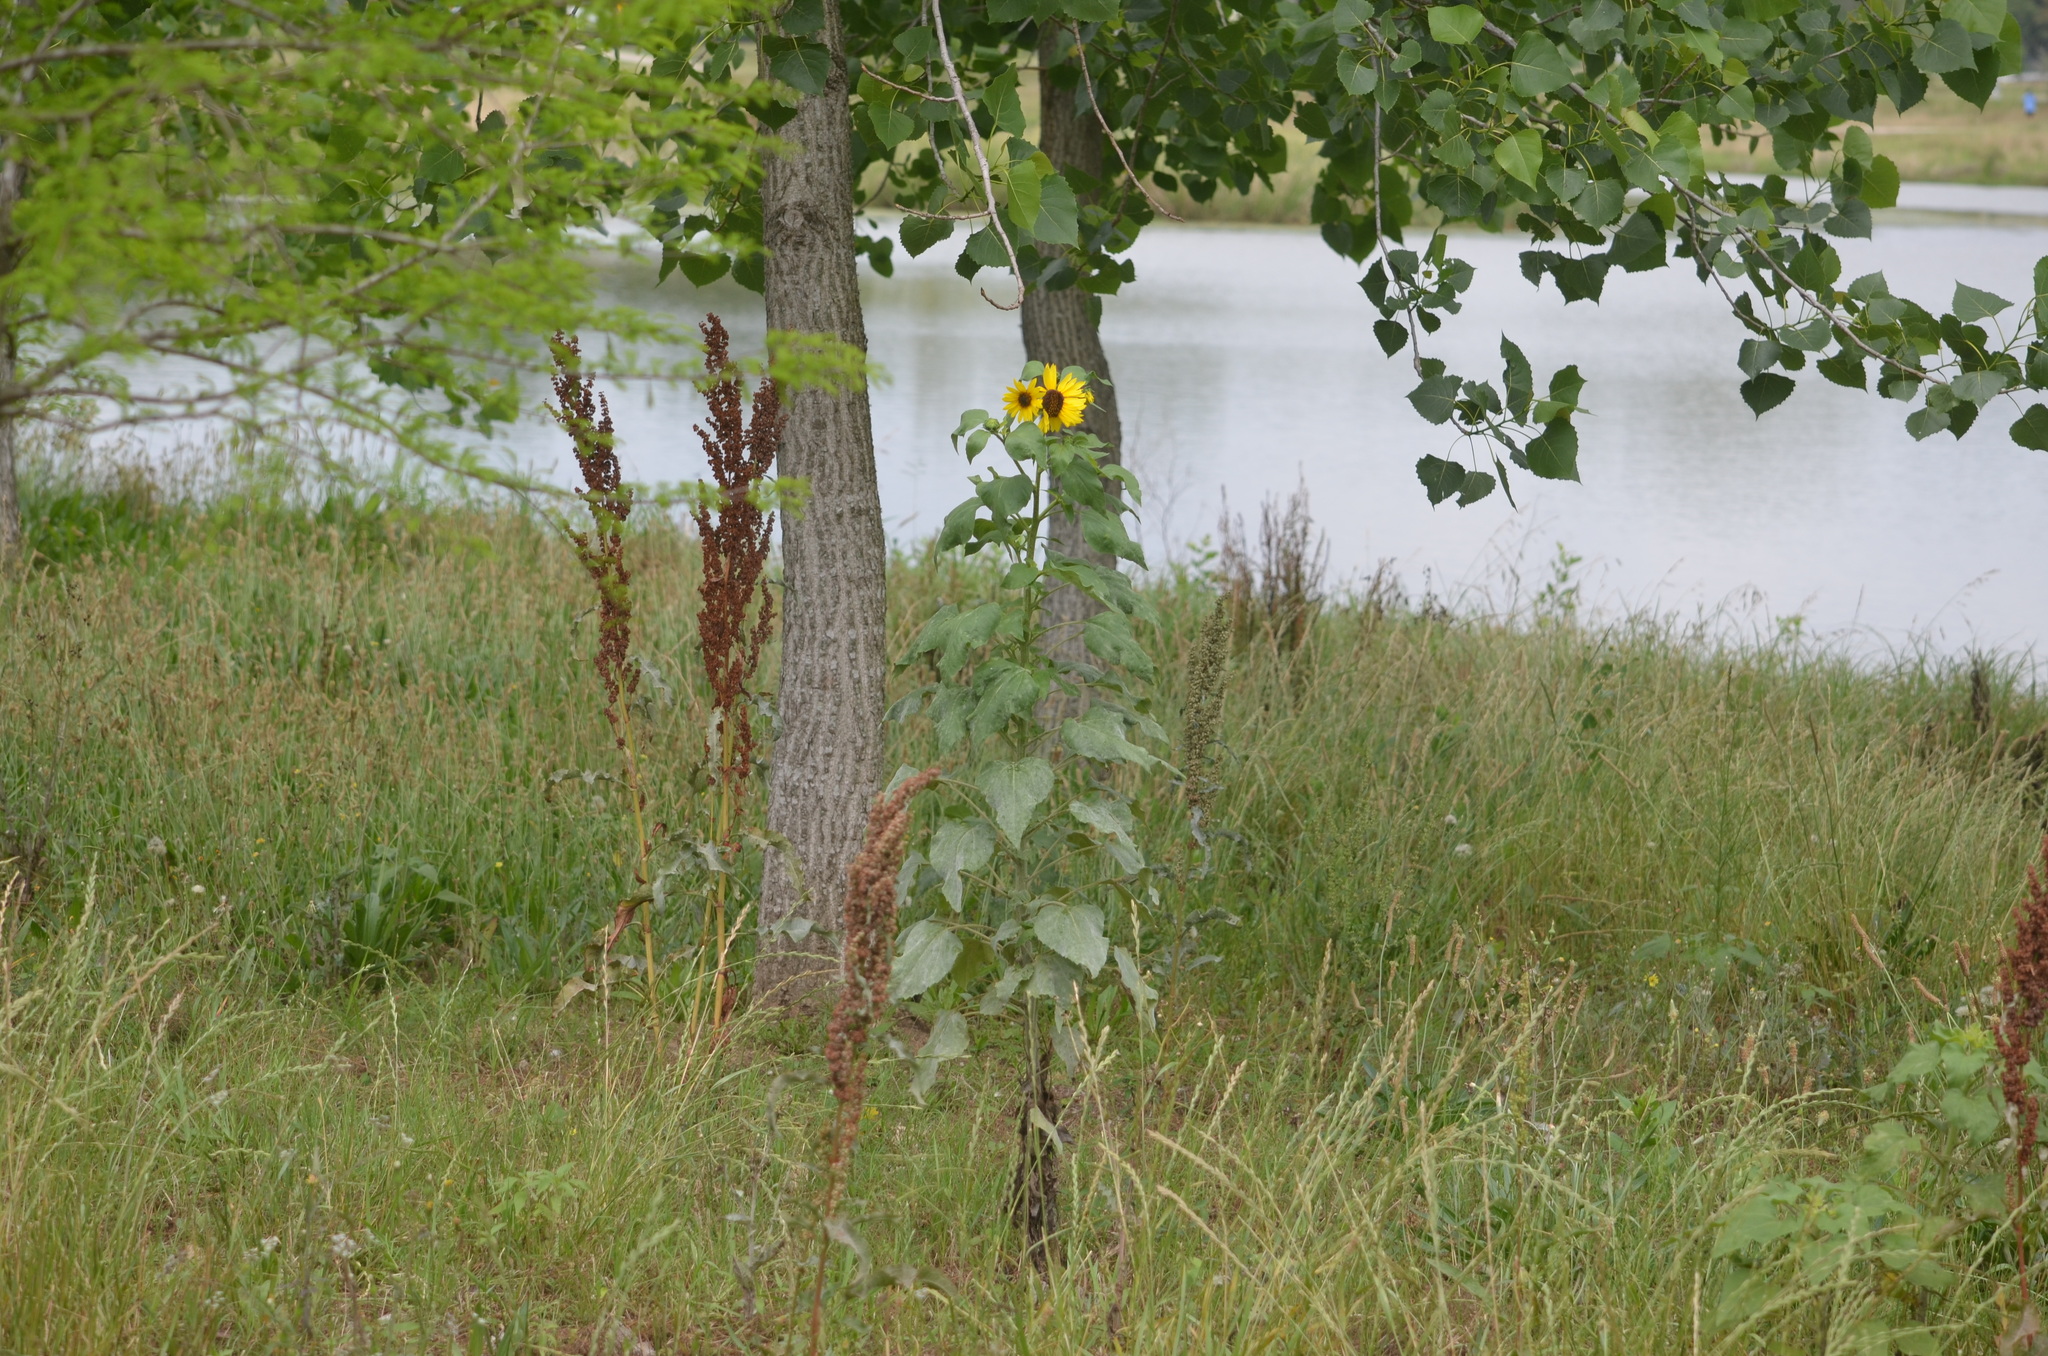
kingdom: Plantae
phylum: Tracheophyta
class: Magnoliopsida
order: Asterales
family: Asteraceae
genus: Helianthus
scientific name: Helianthus annuus
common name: Sunflower
